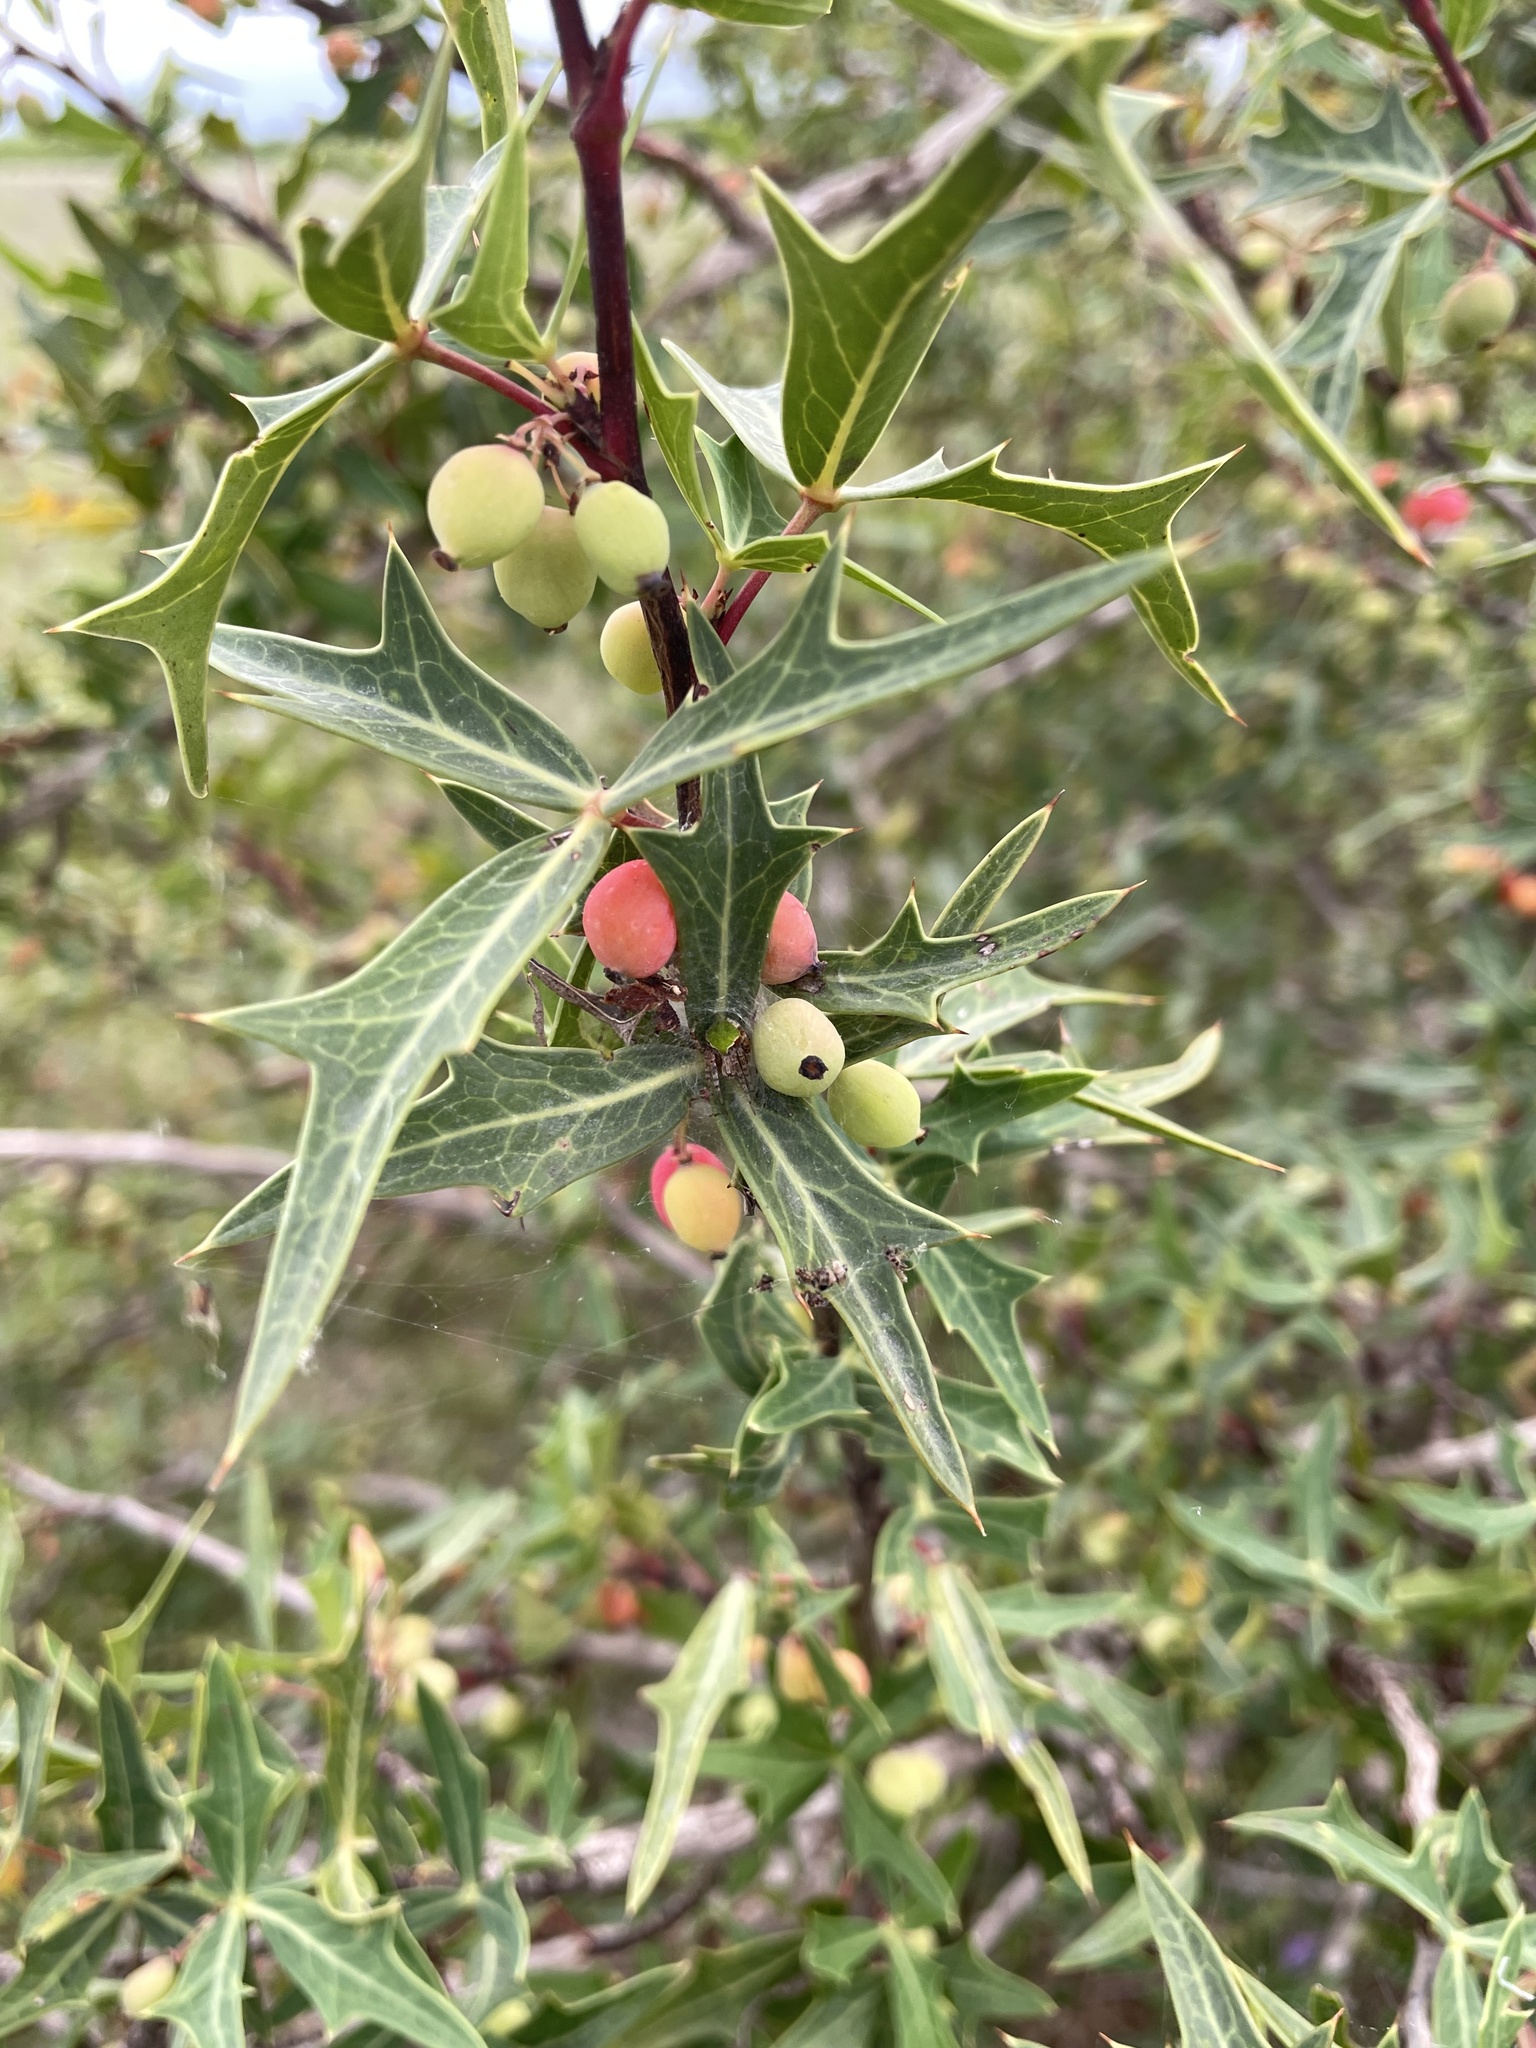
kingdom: Plantae
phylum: Tracheophyta
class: Magnoliopsida
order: Ranunculales
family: Berberidaceae
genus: Alloberberis
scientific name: Alloberberis trifoliolata
